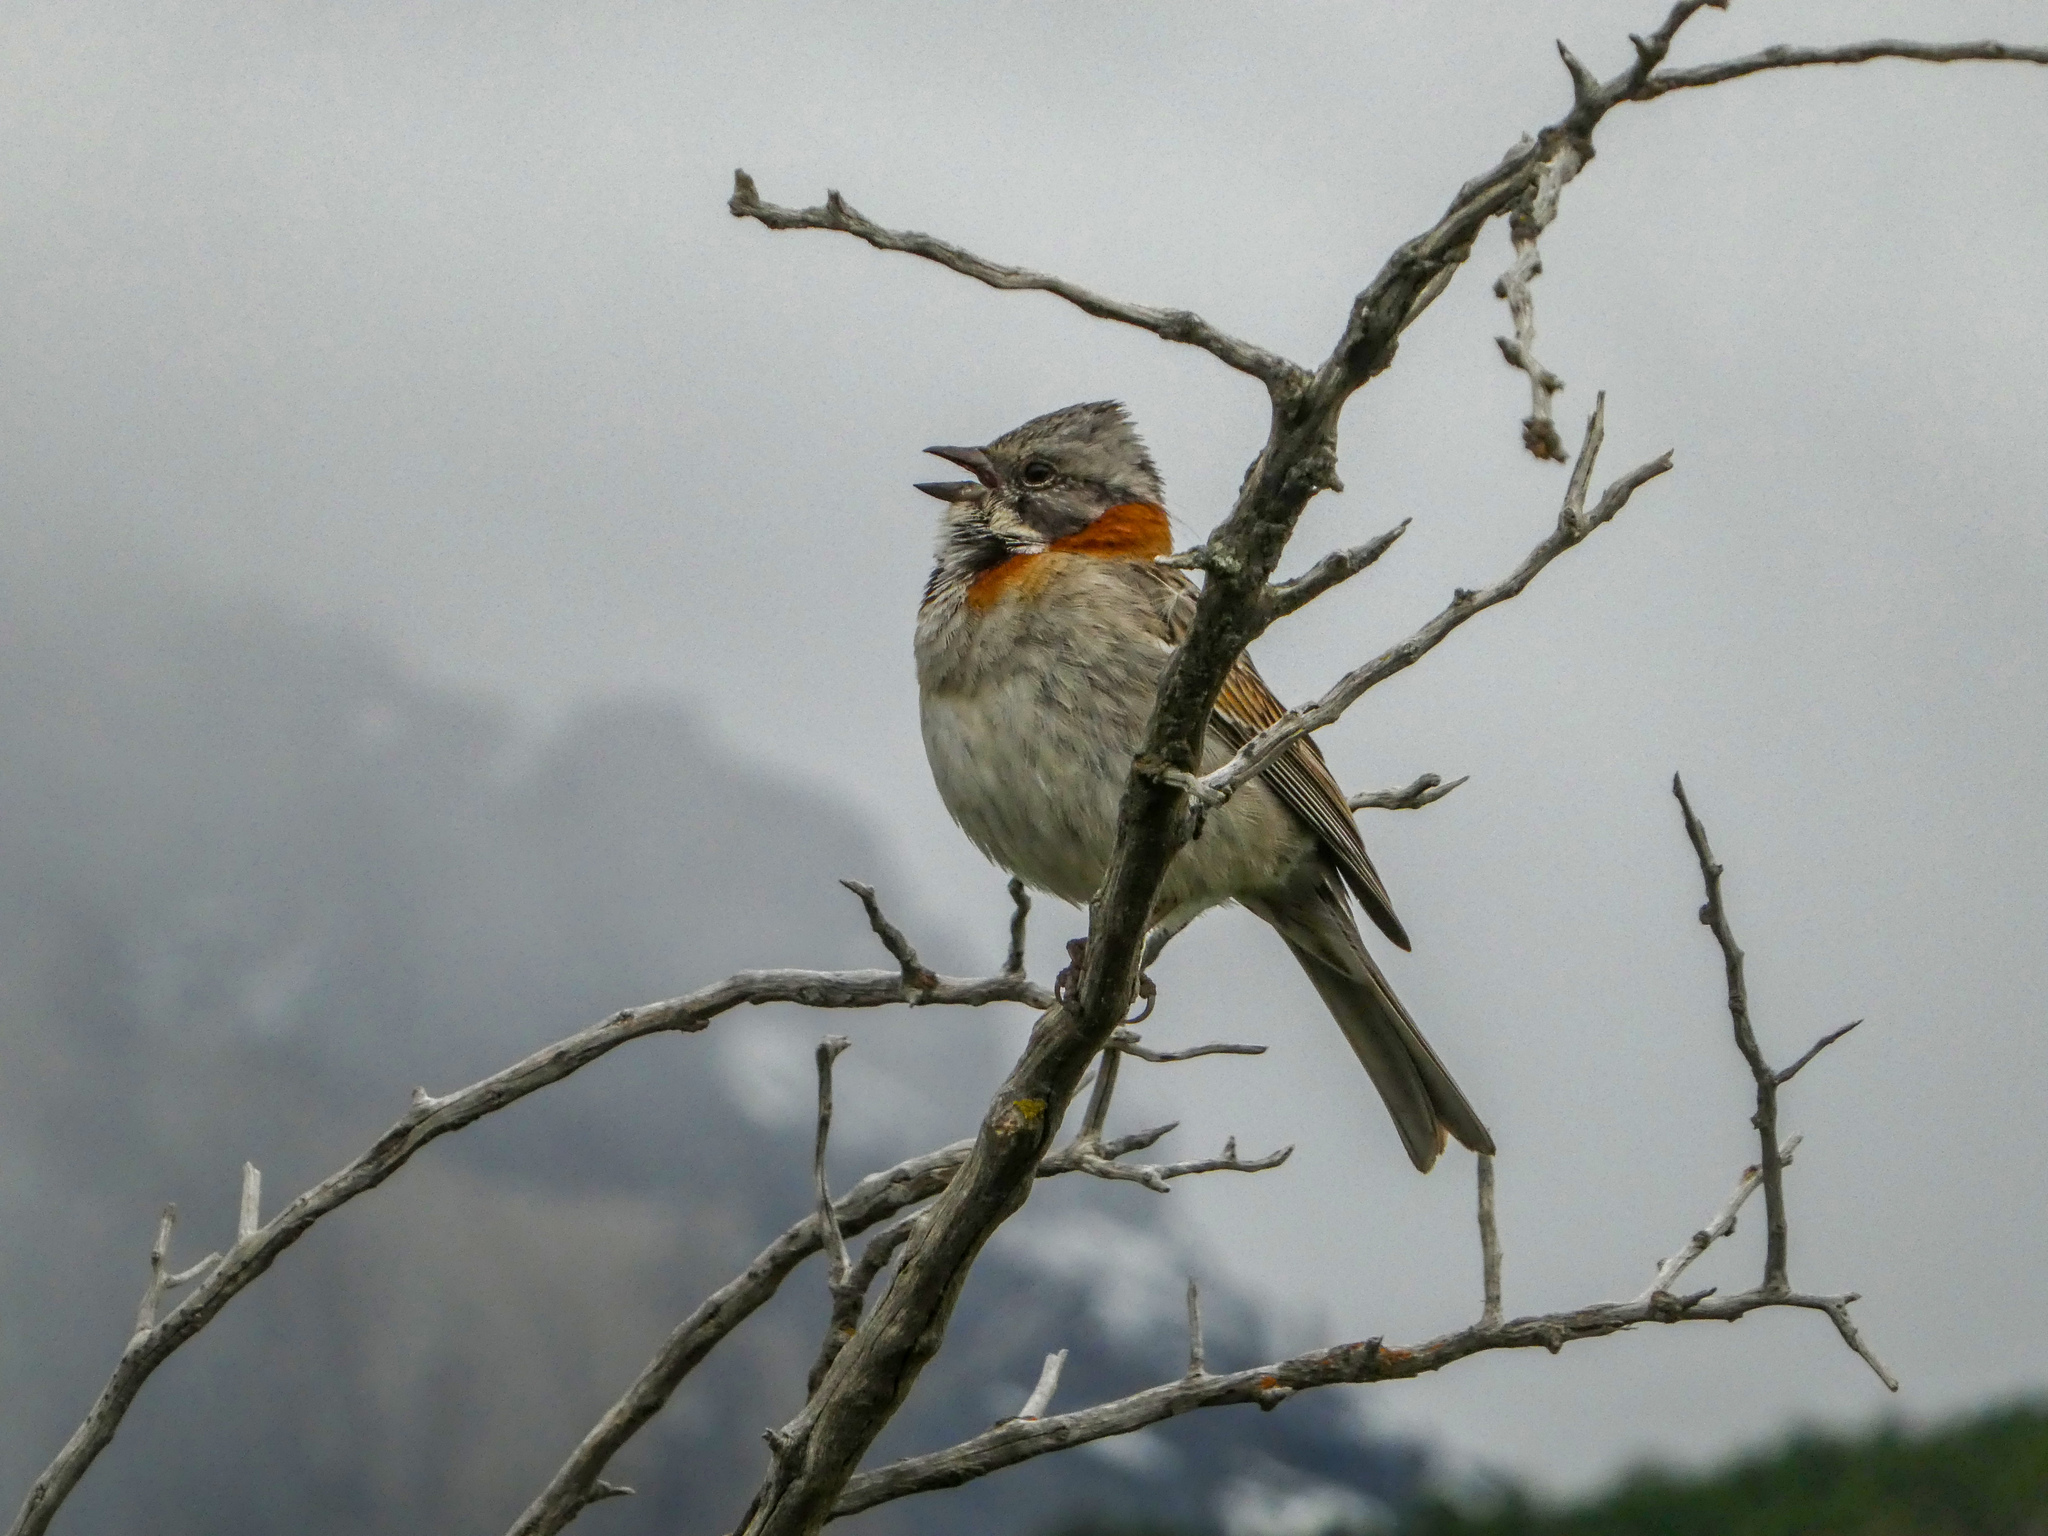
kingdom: Animalia
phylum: Chordata
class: Aves
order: Passeriformes
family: Passerellidae
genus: Zonotrichia
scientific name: Zonotrichia capensis
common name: Rufous-collared sparrow
